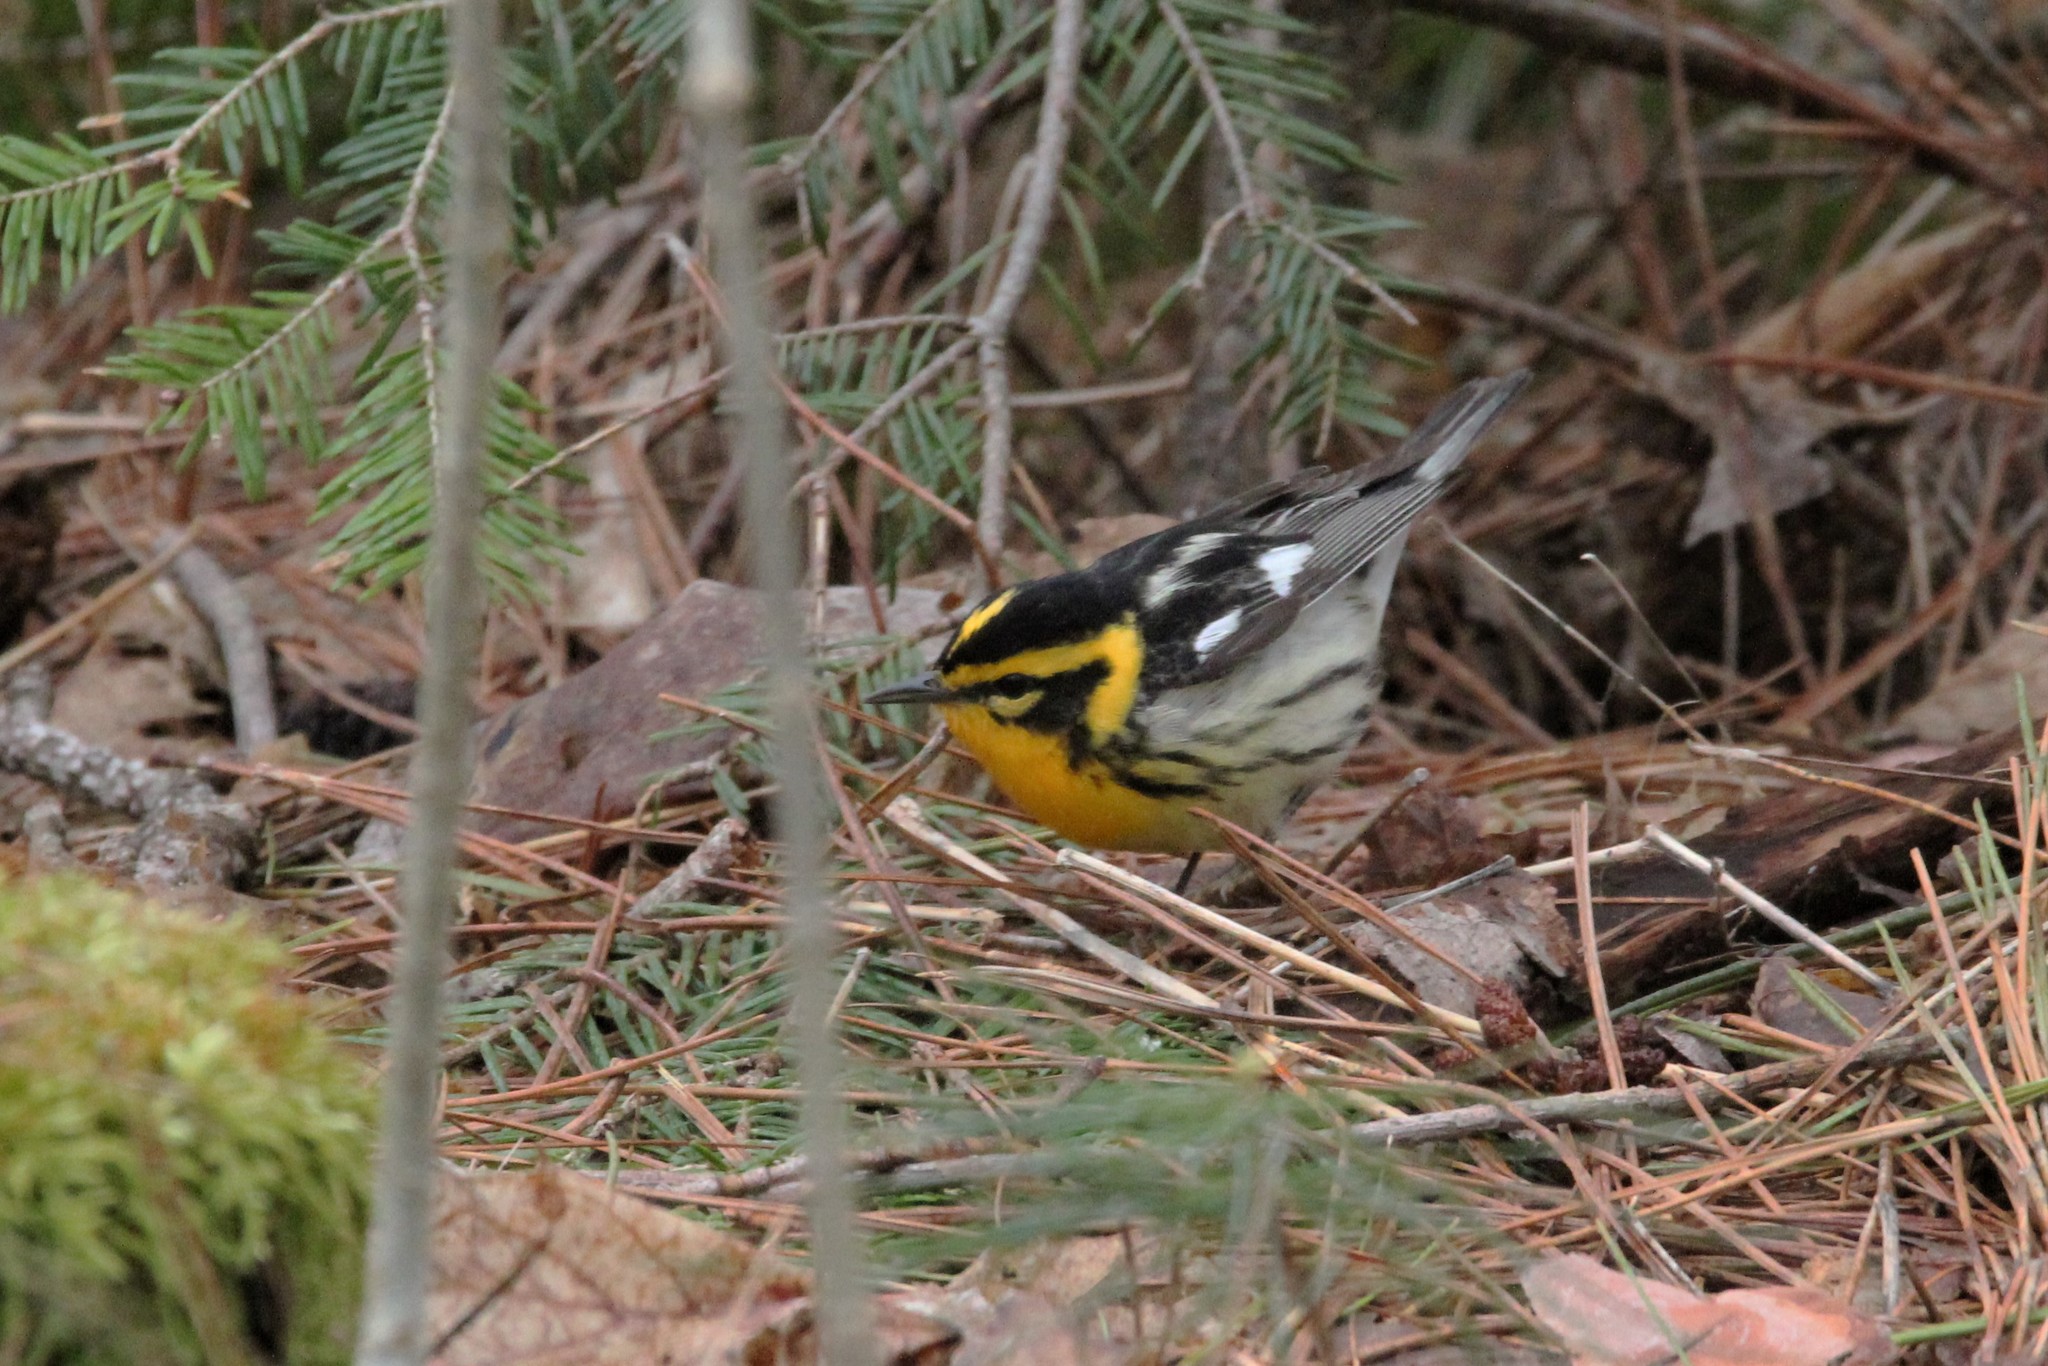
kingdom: Animalia
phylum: Chordata
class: Aves
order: Passeriformes
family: Parulidae
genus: Setophaga
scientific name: Setophaga fusca
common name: Blackburnian warbler
